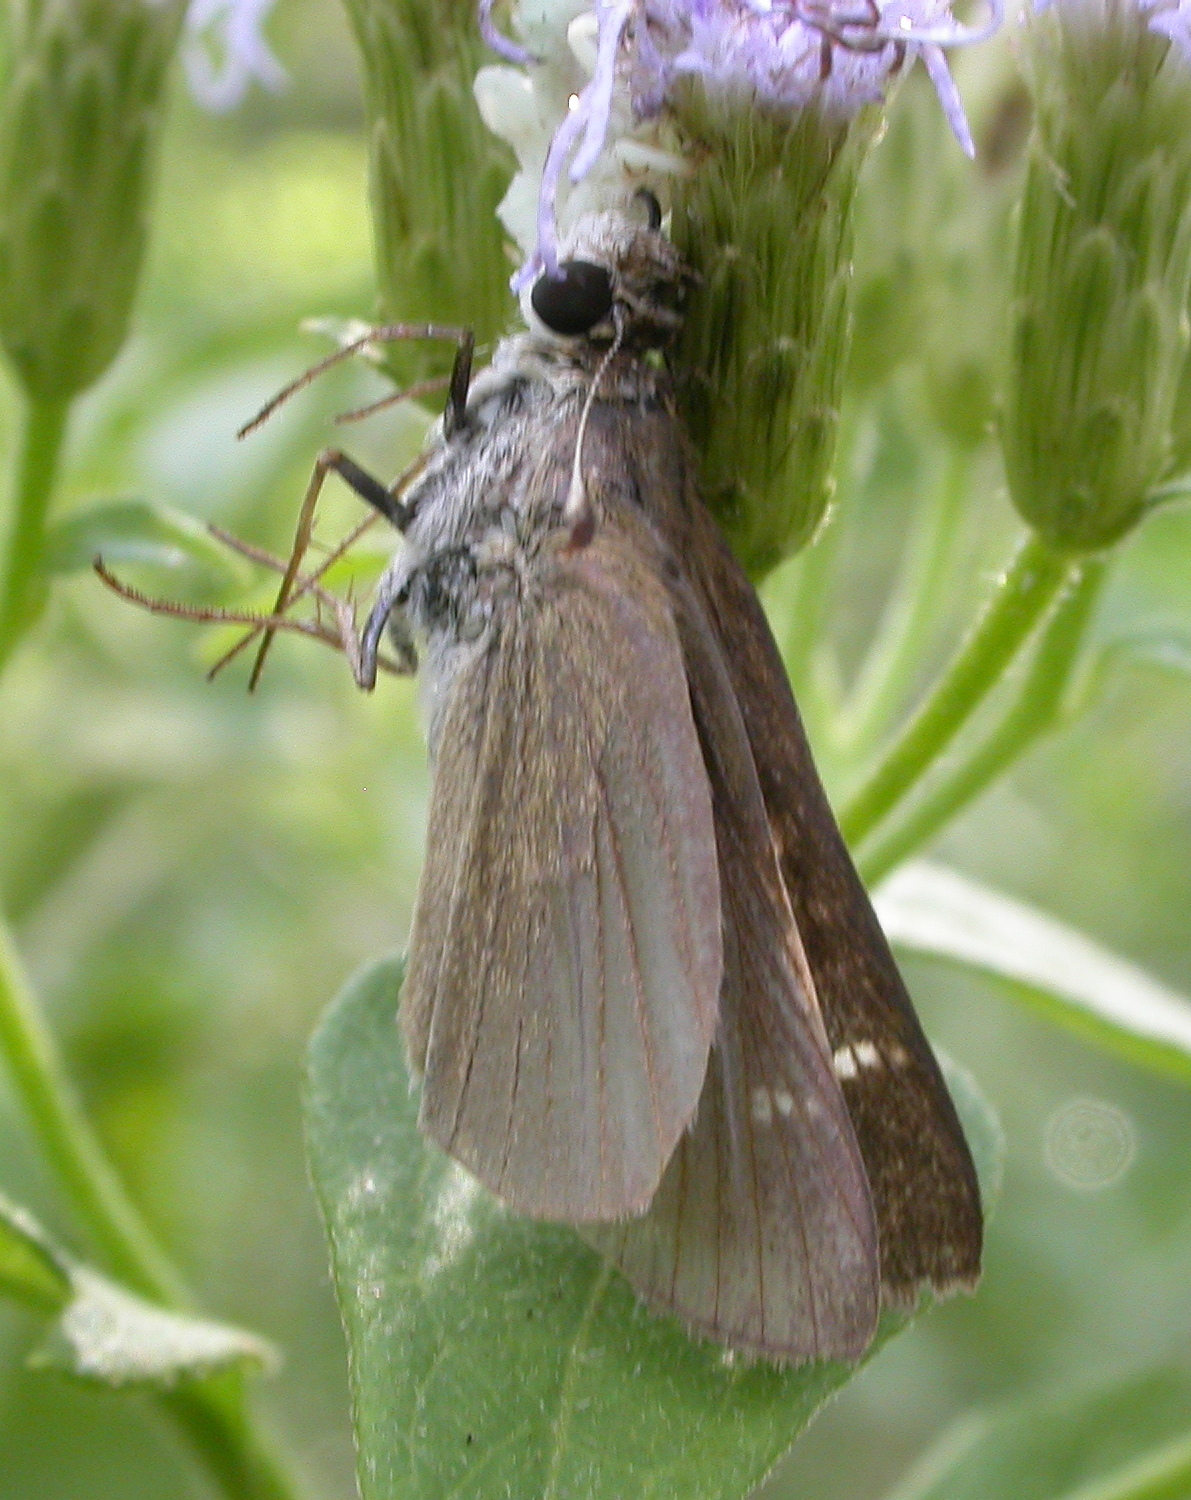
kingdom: Animalia
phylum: Arthropoda
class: Insecta
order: Lepidoptera
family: Hesperiidae
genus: Lerodea
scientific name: Lerodea eufala
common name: Eufala skipper
